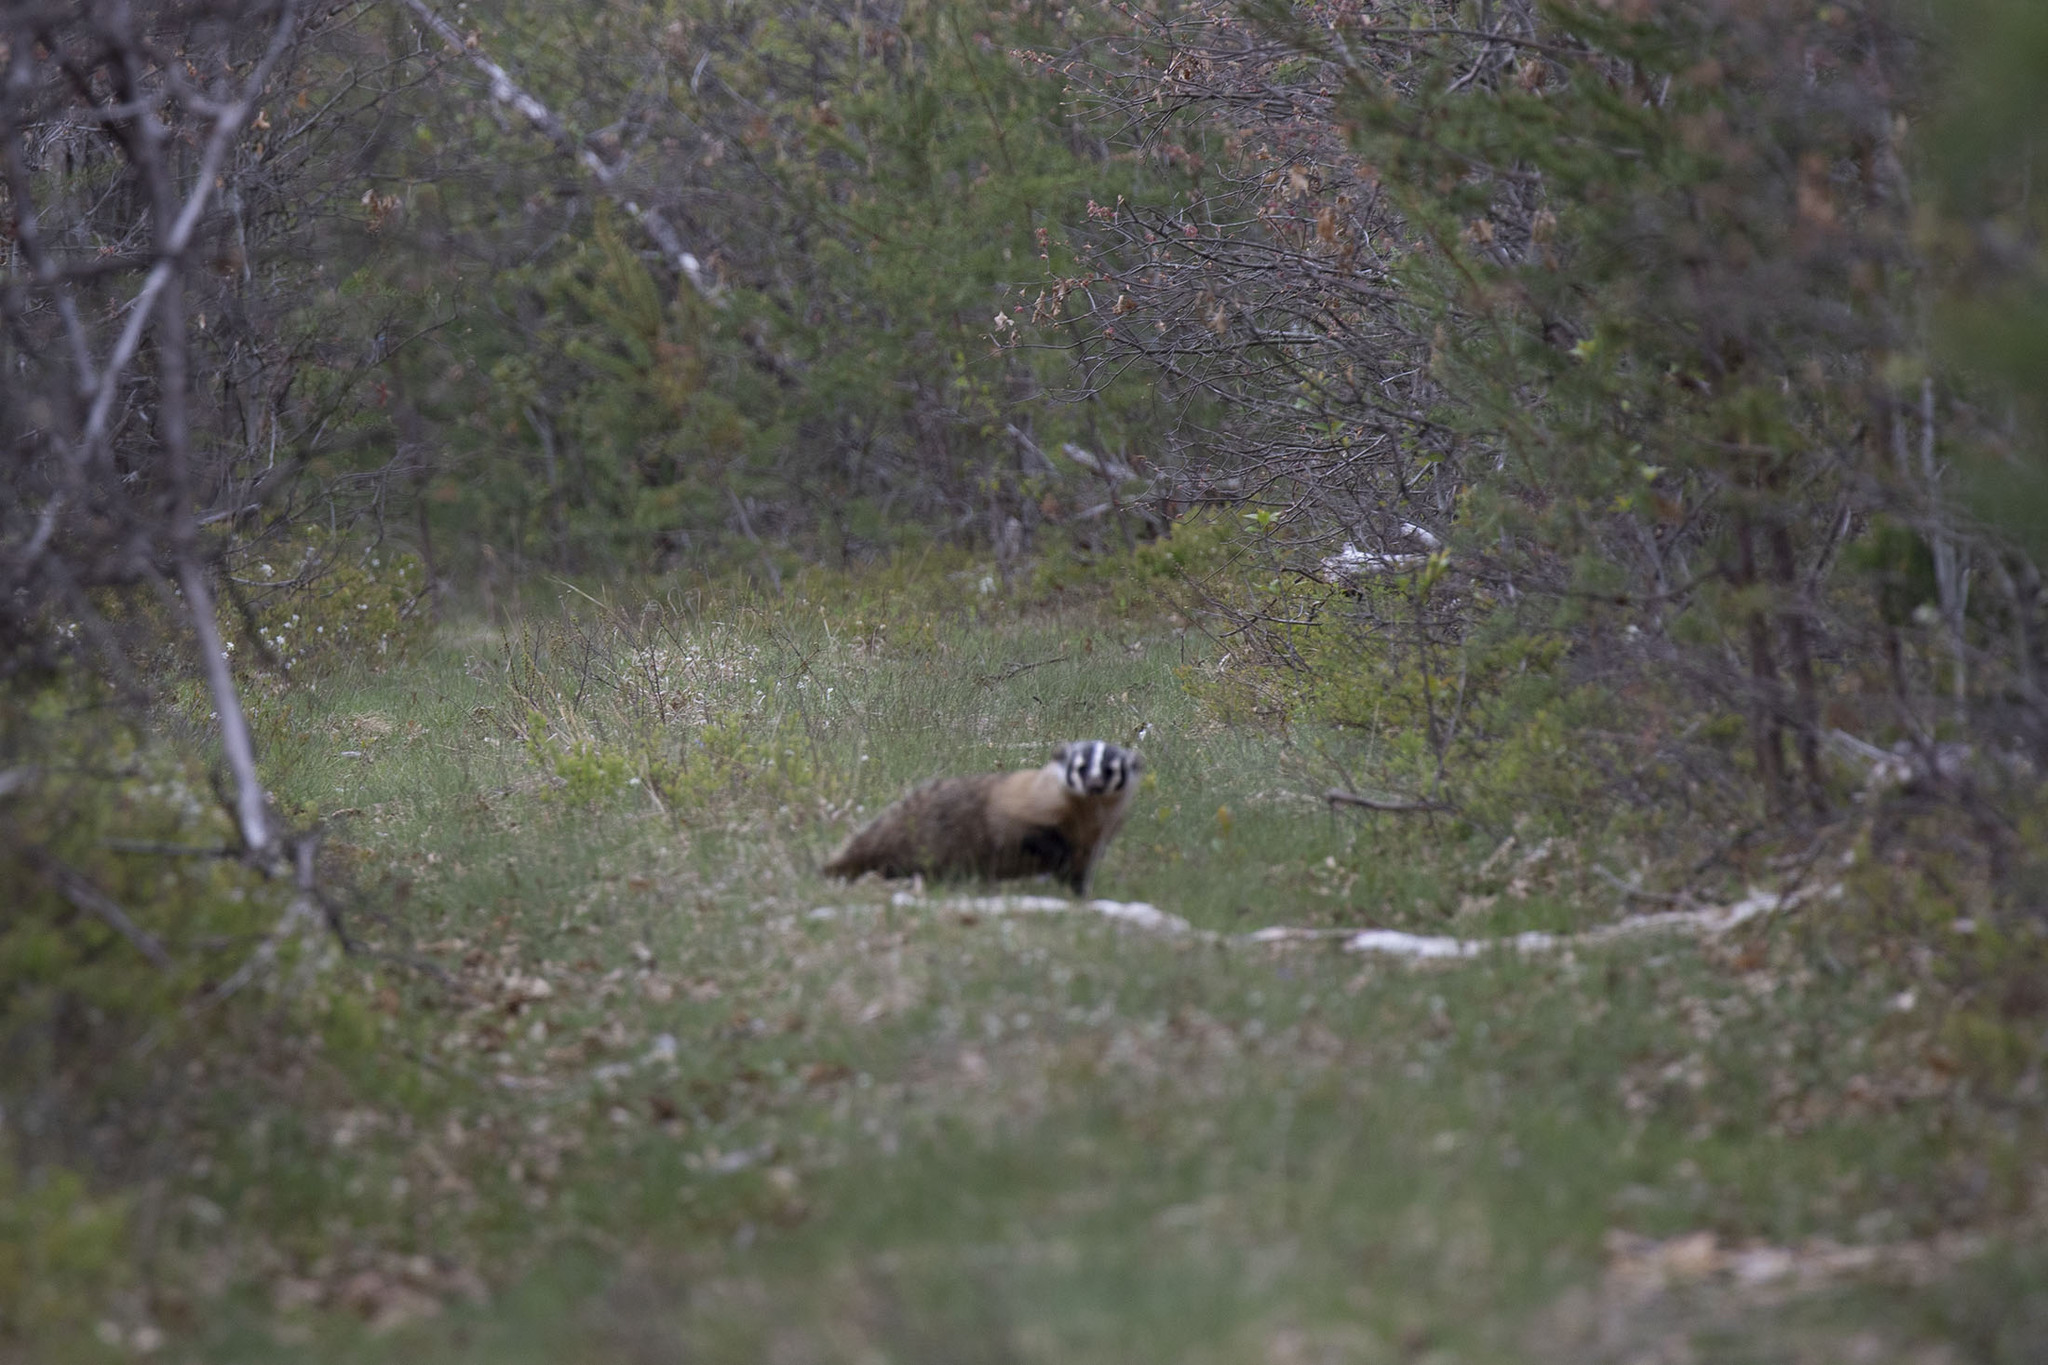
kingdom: Animalia
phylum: Chordata
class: Mammalia
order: Carnivora
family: Mustelidae
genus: Taxidea
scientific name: Taxidea taxus
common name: American badger
